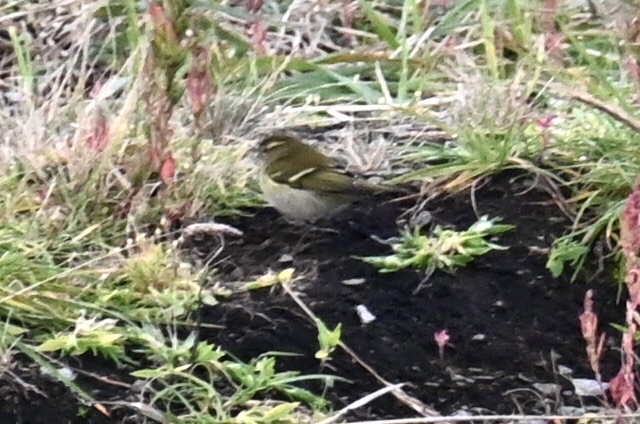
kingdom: Animalia
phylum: Chordata
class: Aves
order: Passeriformes
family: Phylloscopidae
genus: Phylloscopus
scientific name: Phylloscopus proregulus
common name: Pallas's leaf warbler
